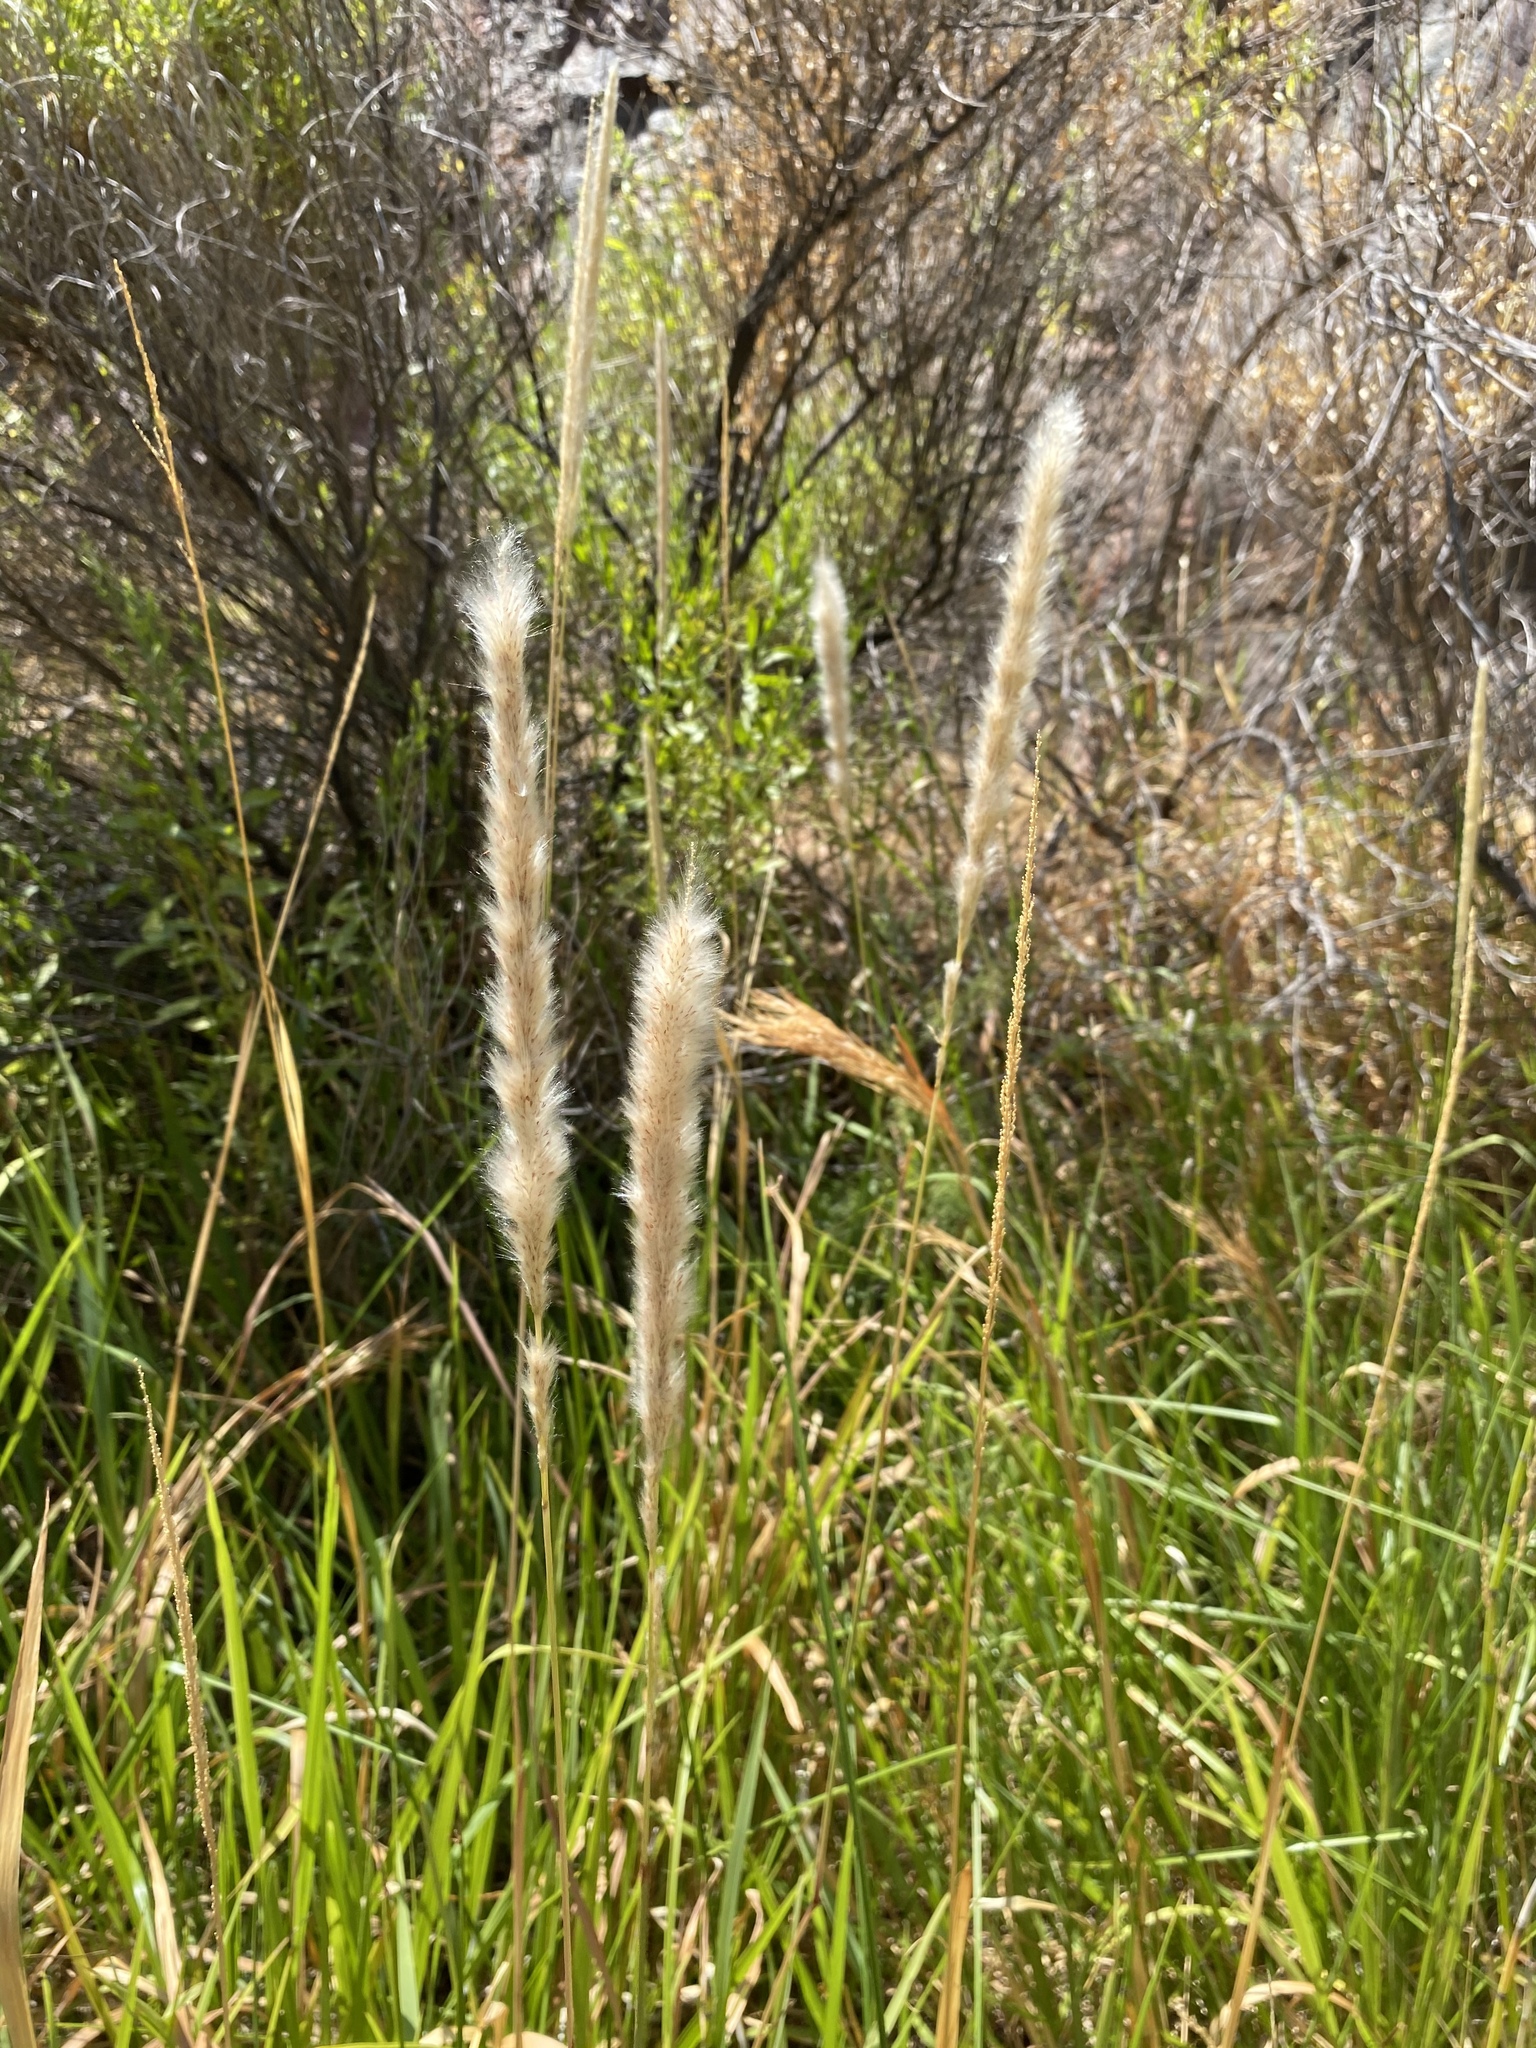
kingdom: Plantae
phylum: Tracheophyta
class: Liliopsida
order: Poales
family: Poaceae
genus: Imperata
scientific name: Imperata brevifolia
